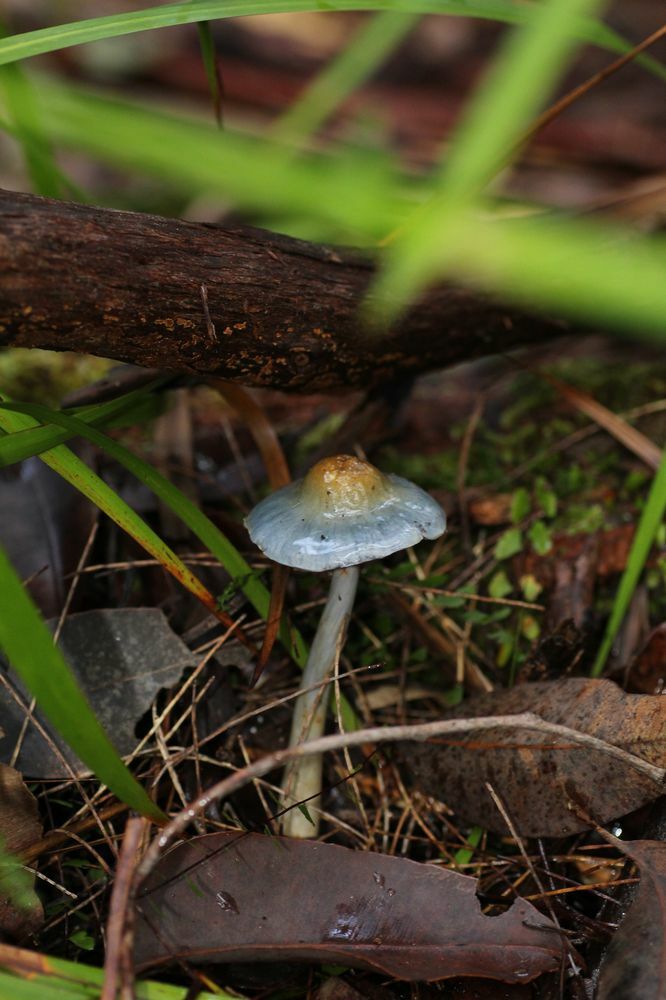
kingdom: Fungi
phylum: Basidiomycota
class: Agaricomycetes
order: Agaricales
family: Cortinariaceae
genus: Cortinarius
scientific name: Cortinarius rotundisporus
